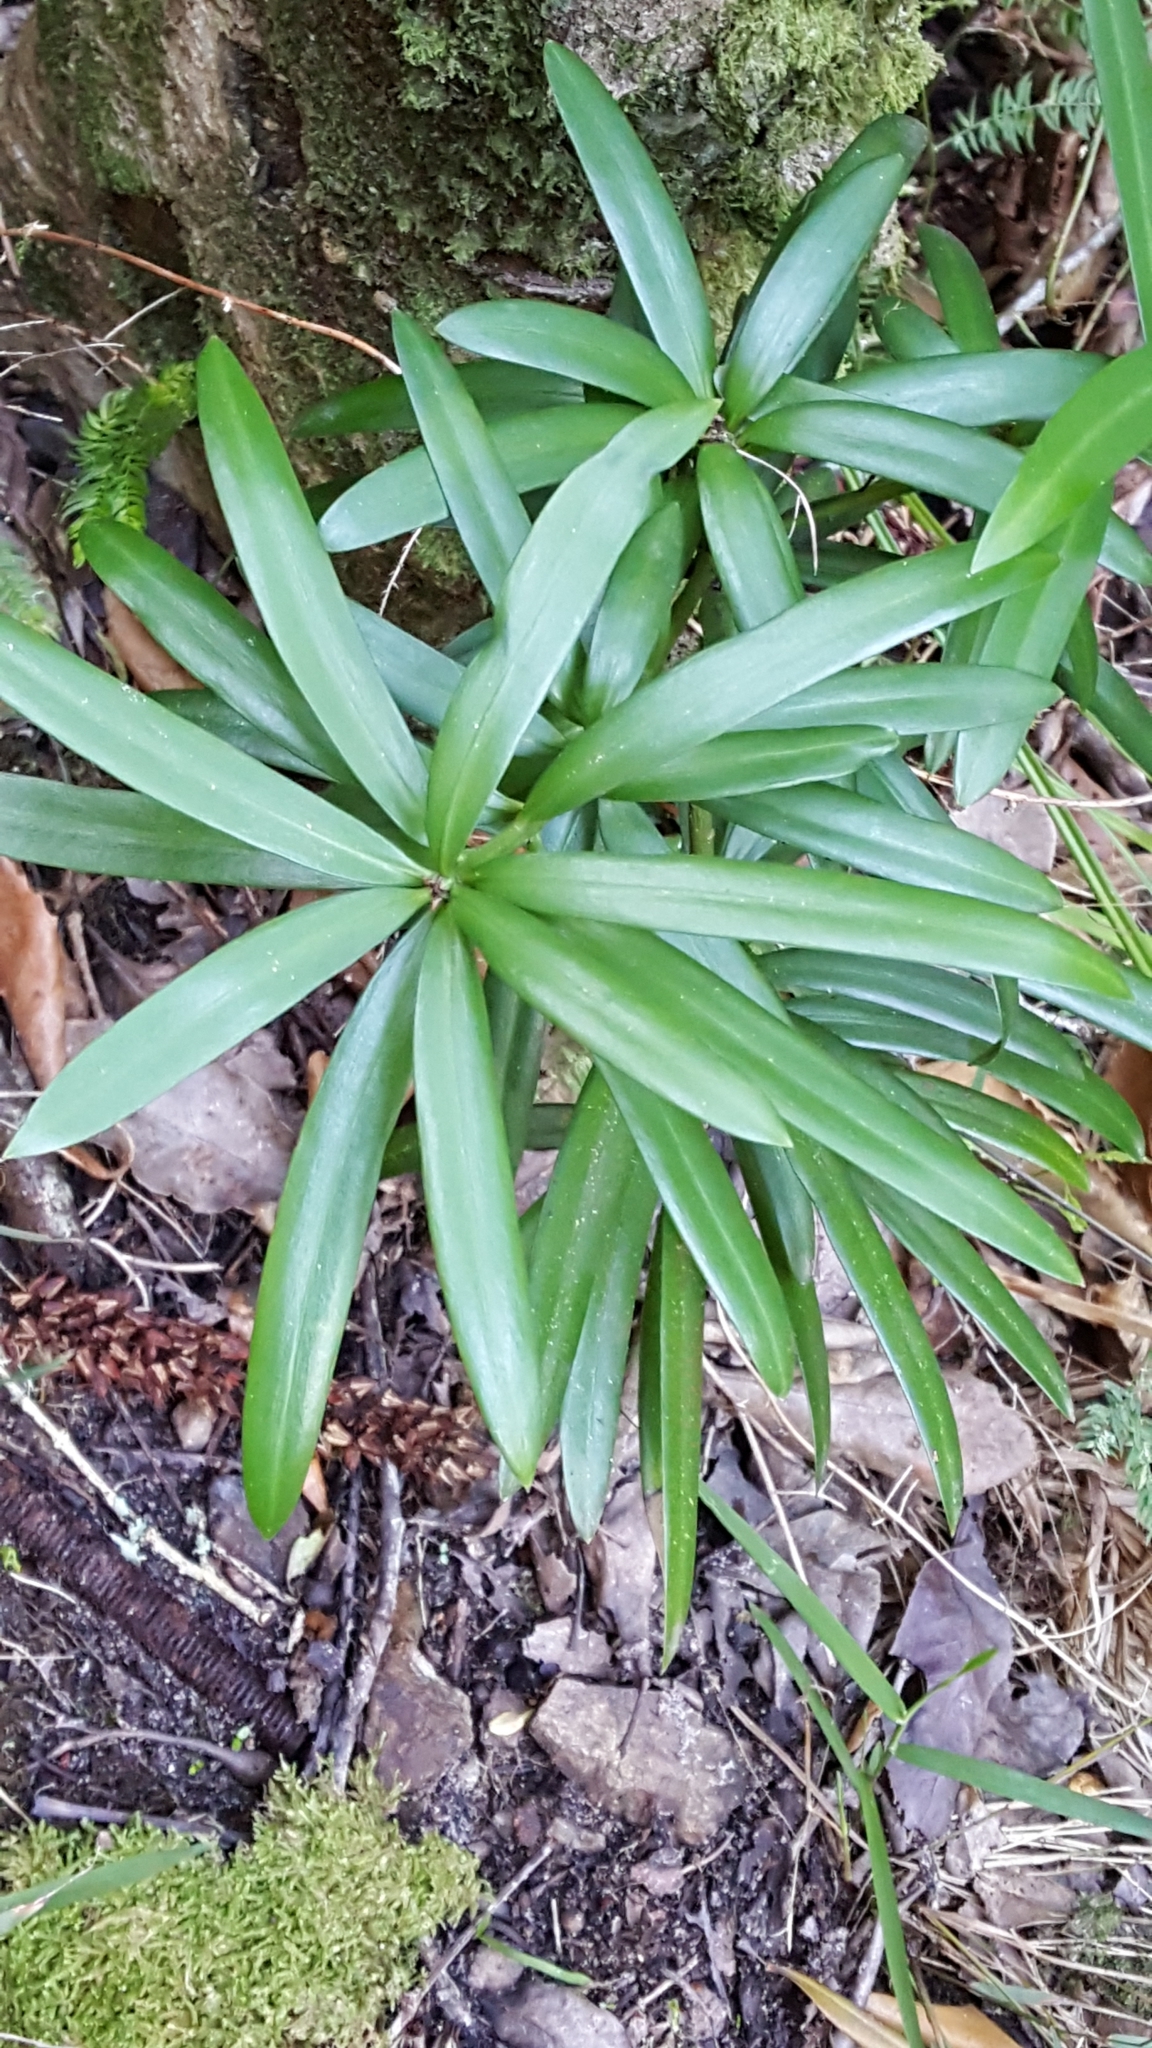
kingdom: Plantae
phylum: Tracheophyta
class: Pinopsida
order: Pinales
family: Podocarpaceae
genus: Podocarpus
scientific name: Podocarpus latifolius
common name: True yellowwood
